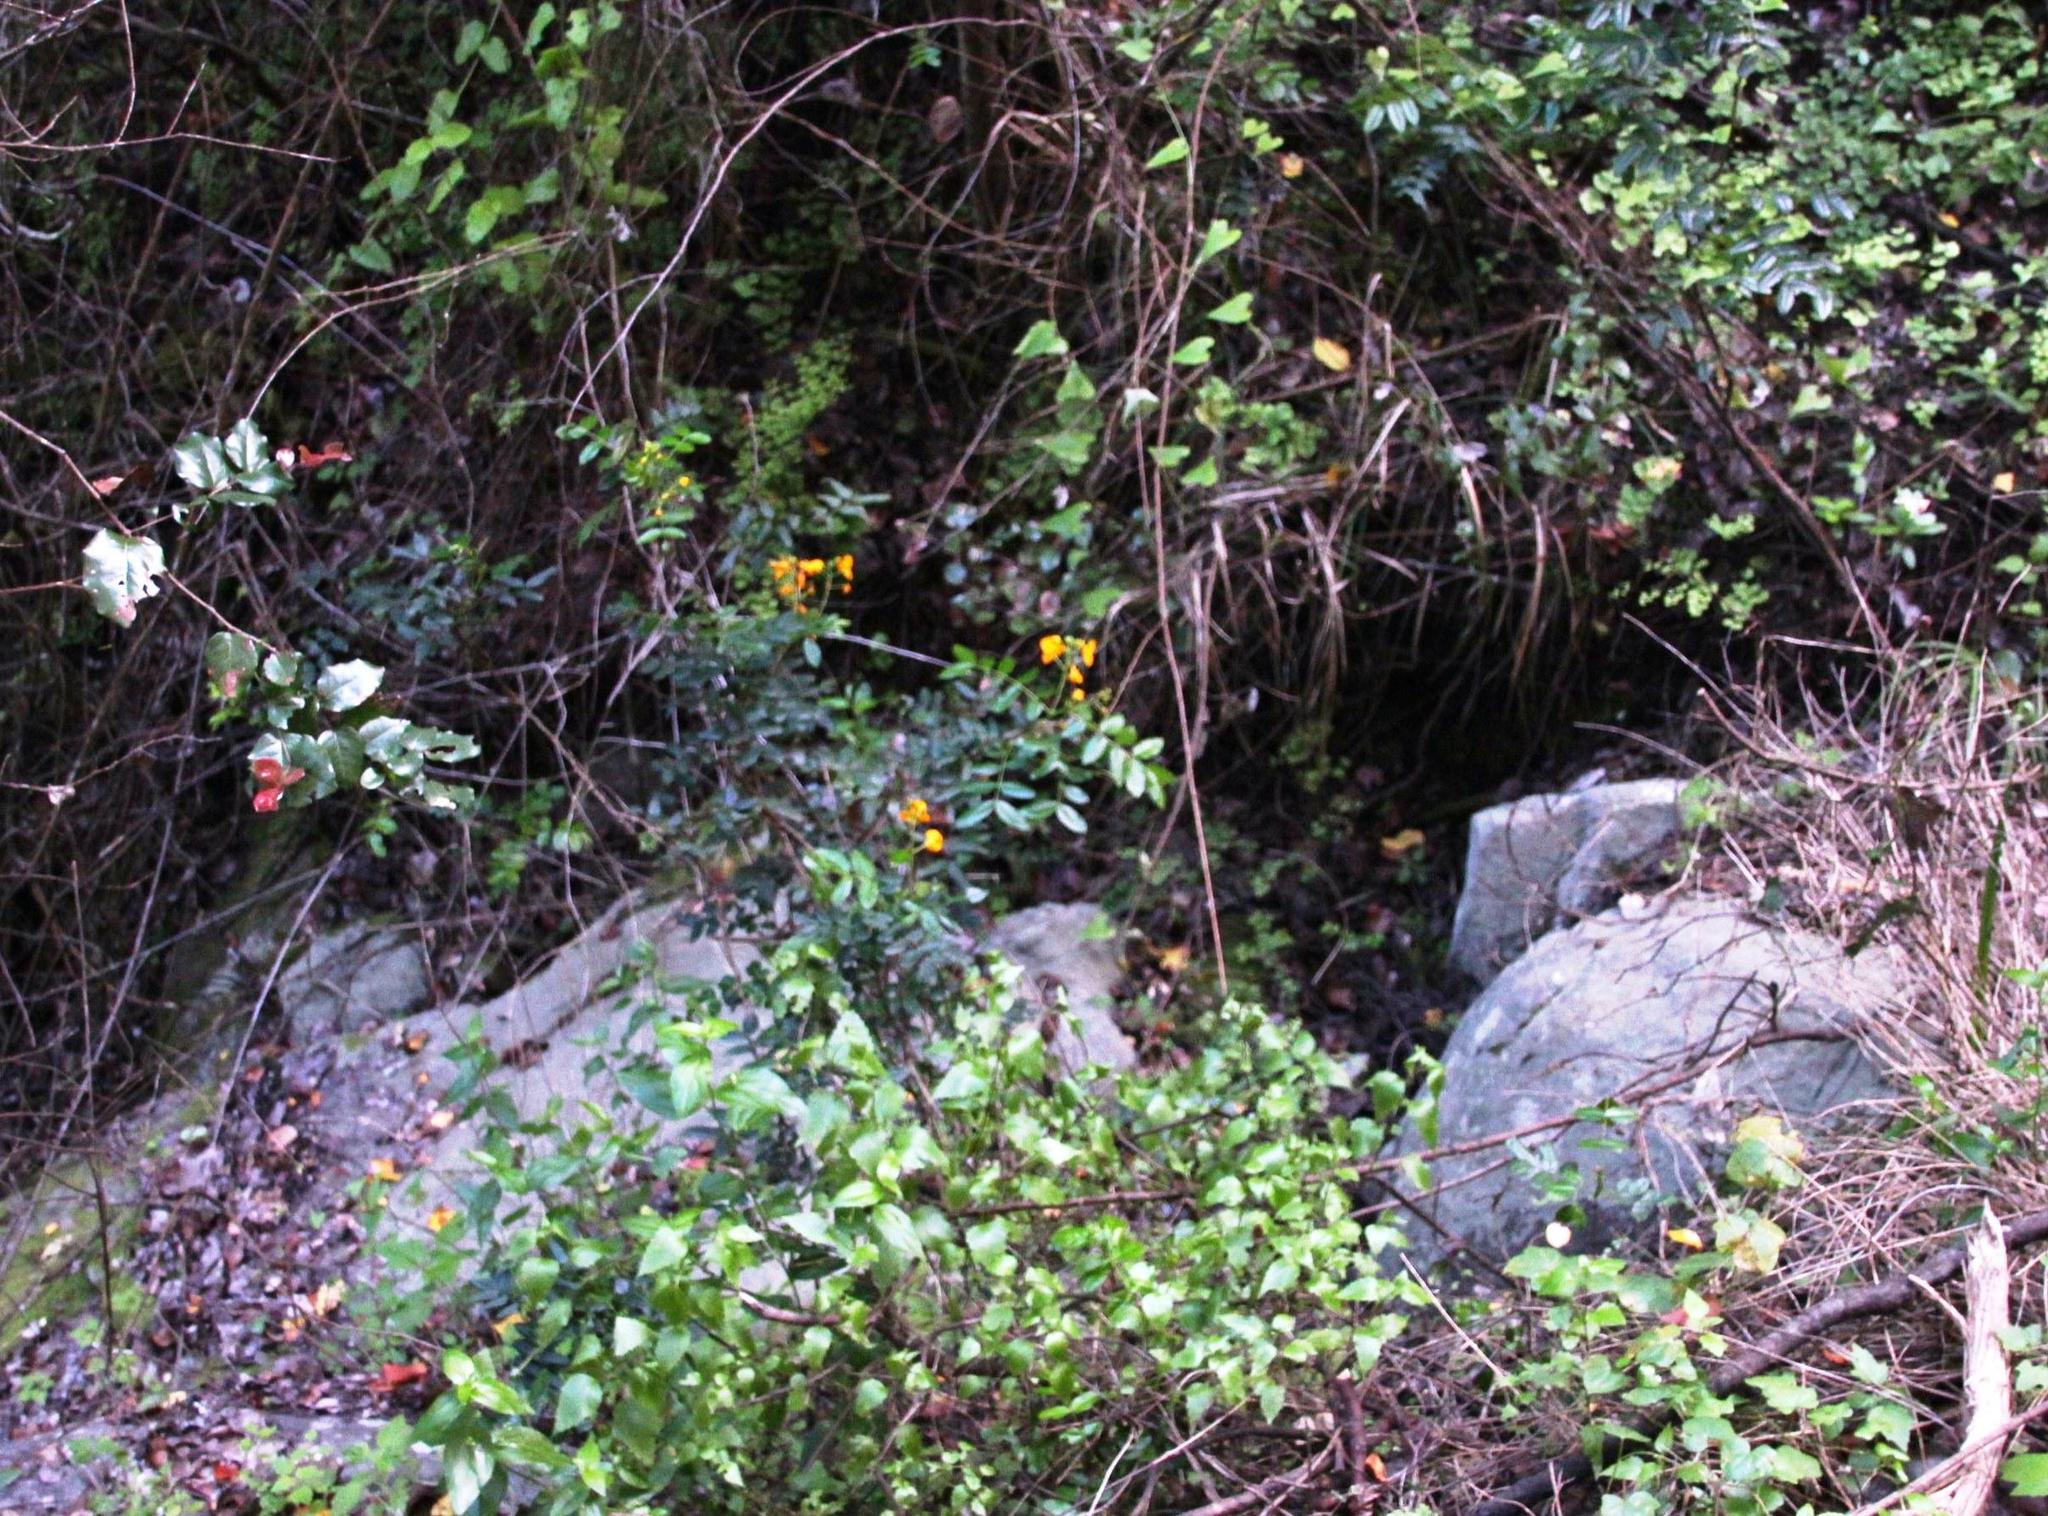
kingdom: Plantae
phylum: Tracheophyta
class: Magnoliopsida
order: Fabales
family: Fabaceae
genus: Senna
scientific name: Senna stipulacea
